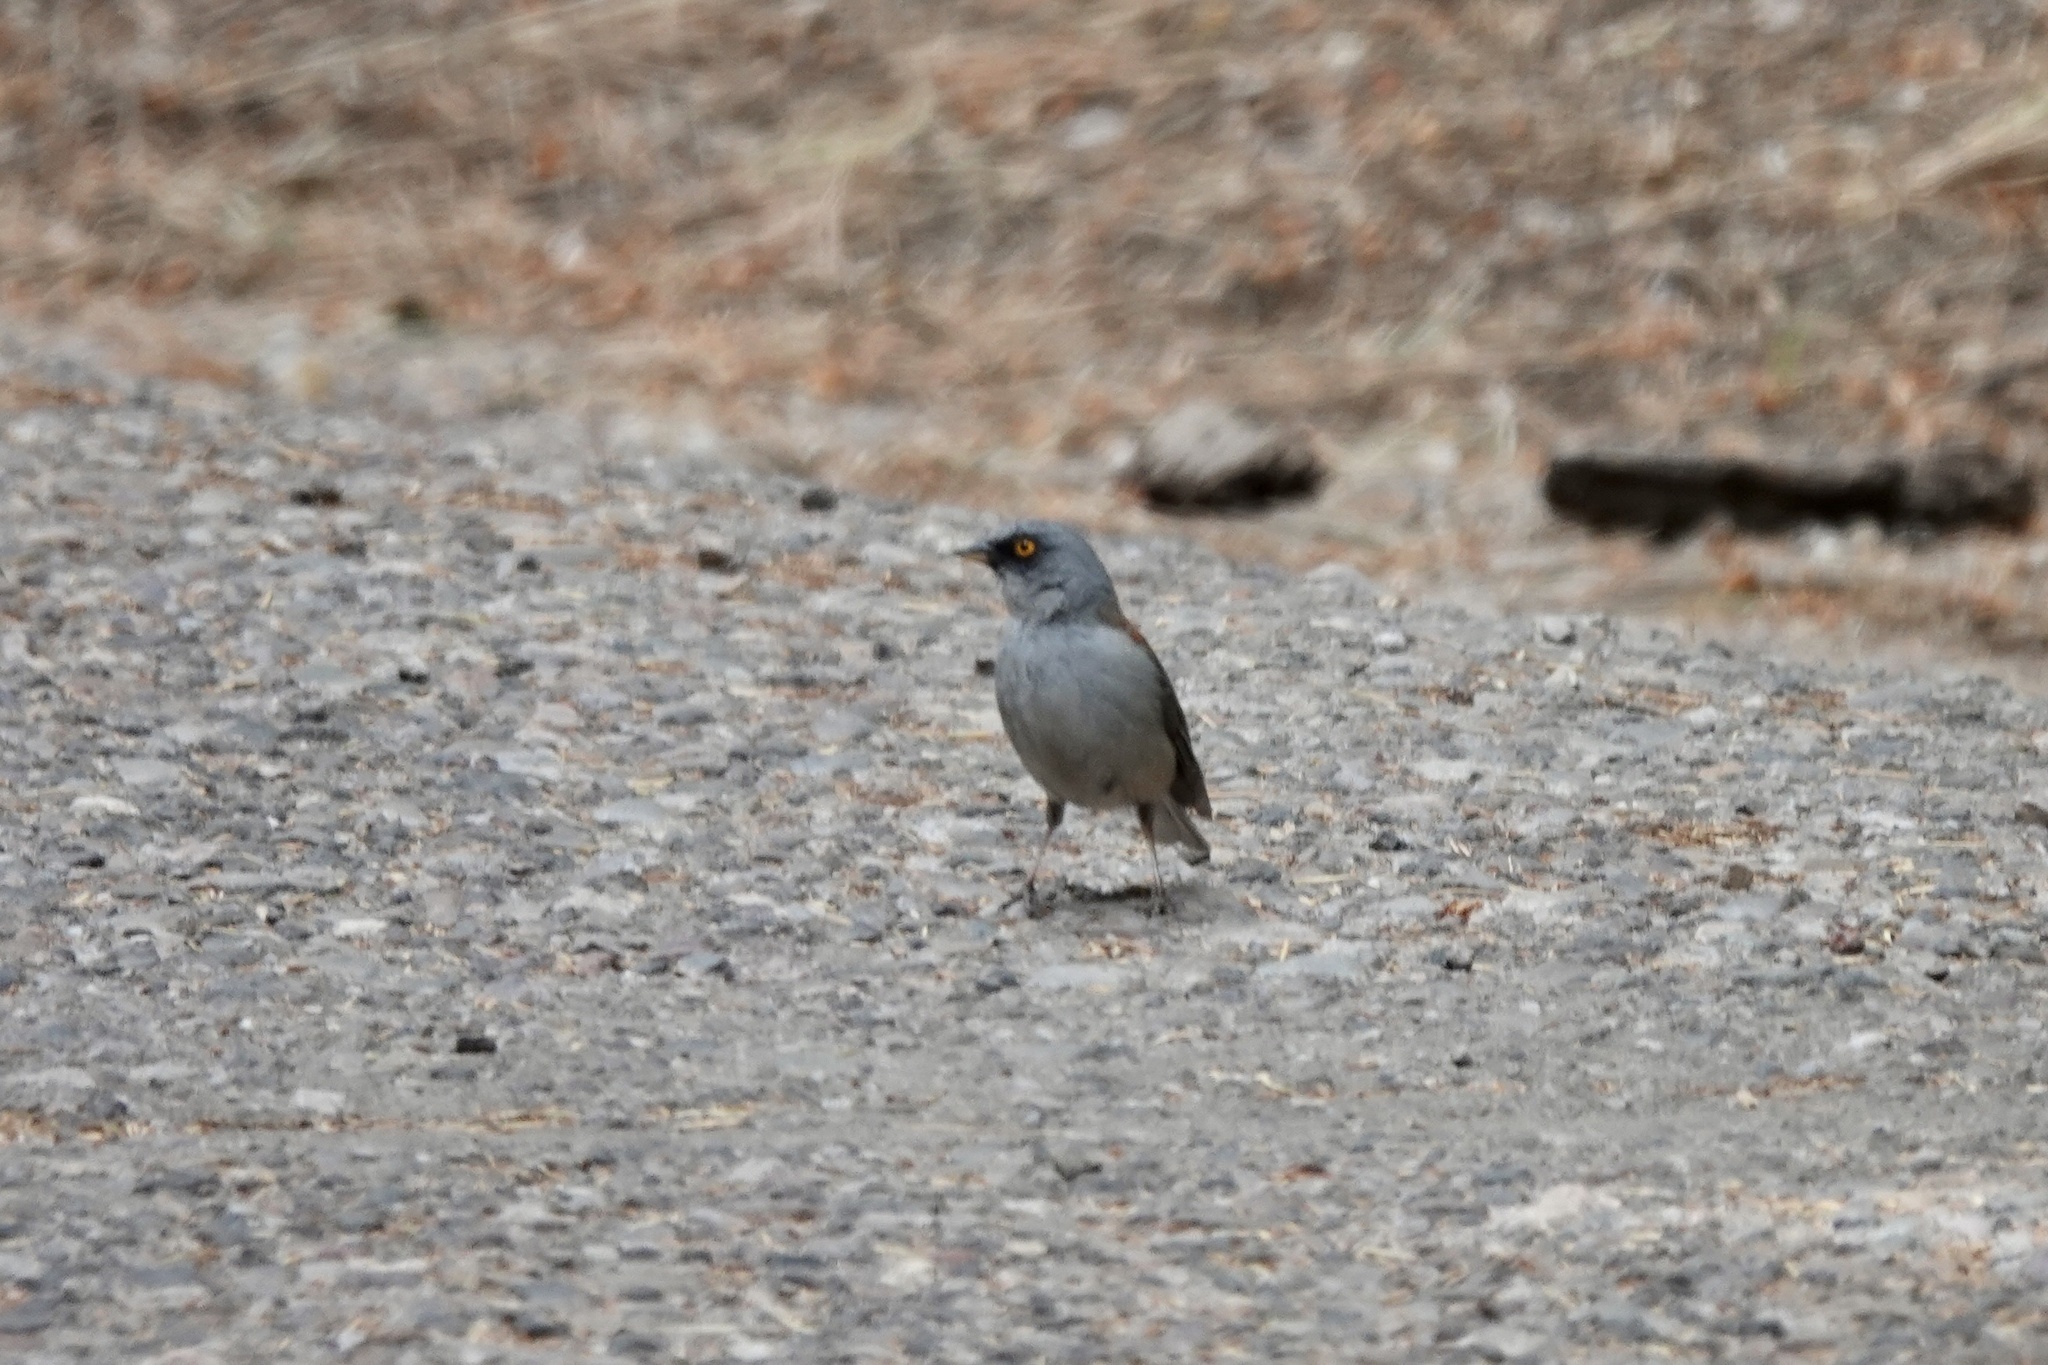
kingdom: Animalia
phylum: Chordata
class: Aves
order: Passeriformes
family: Passerellidae
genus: Junco
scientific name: Junco phaeonotus
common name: Yellow-eyed junco
